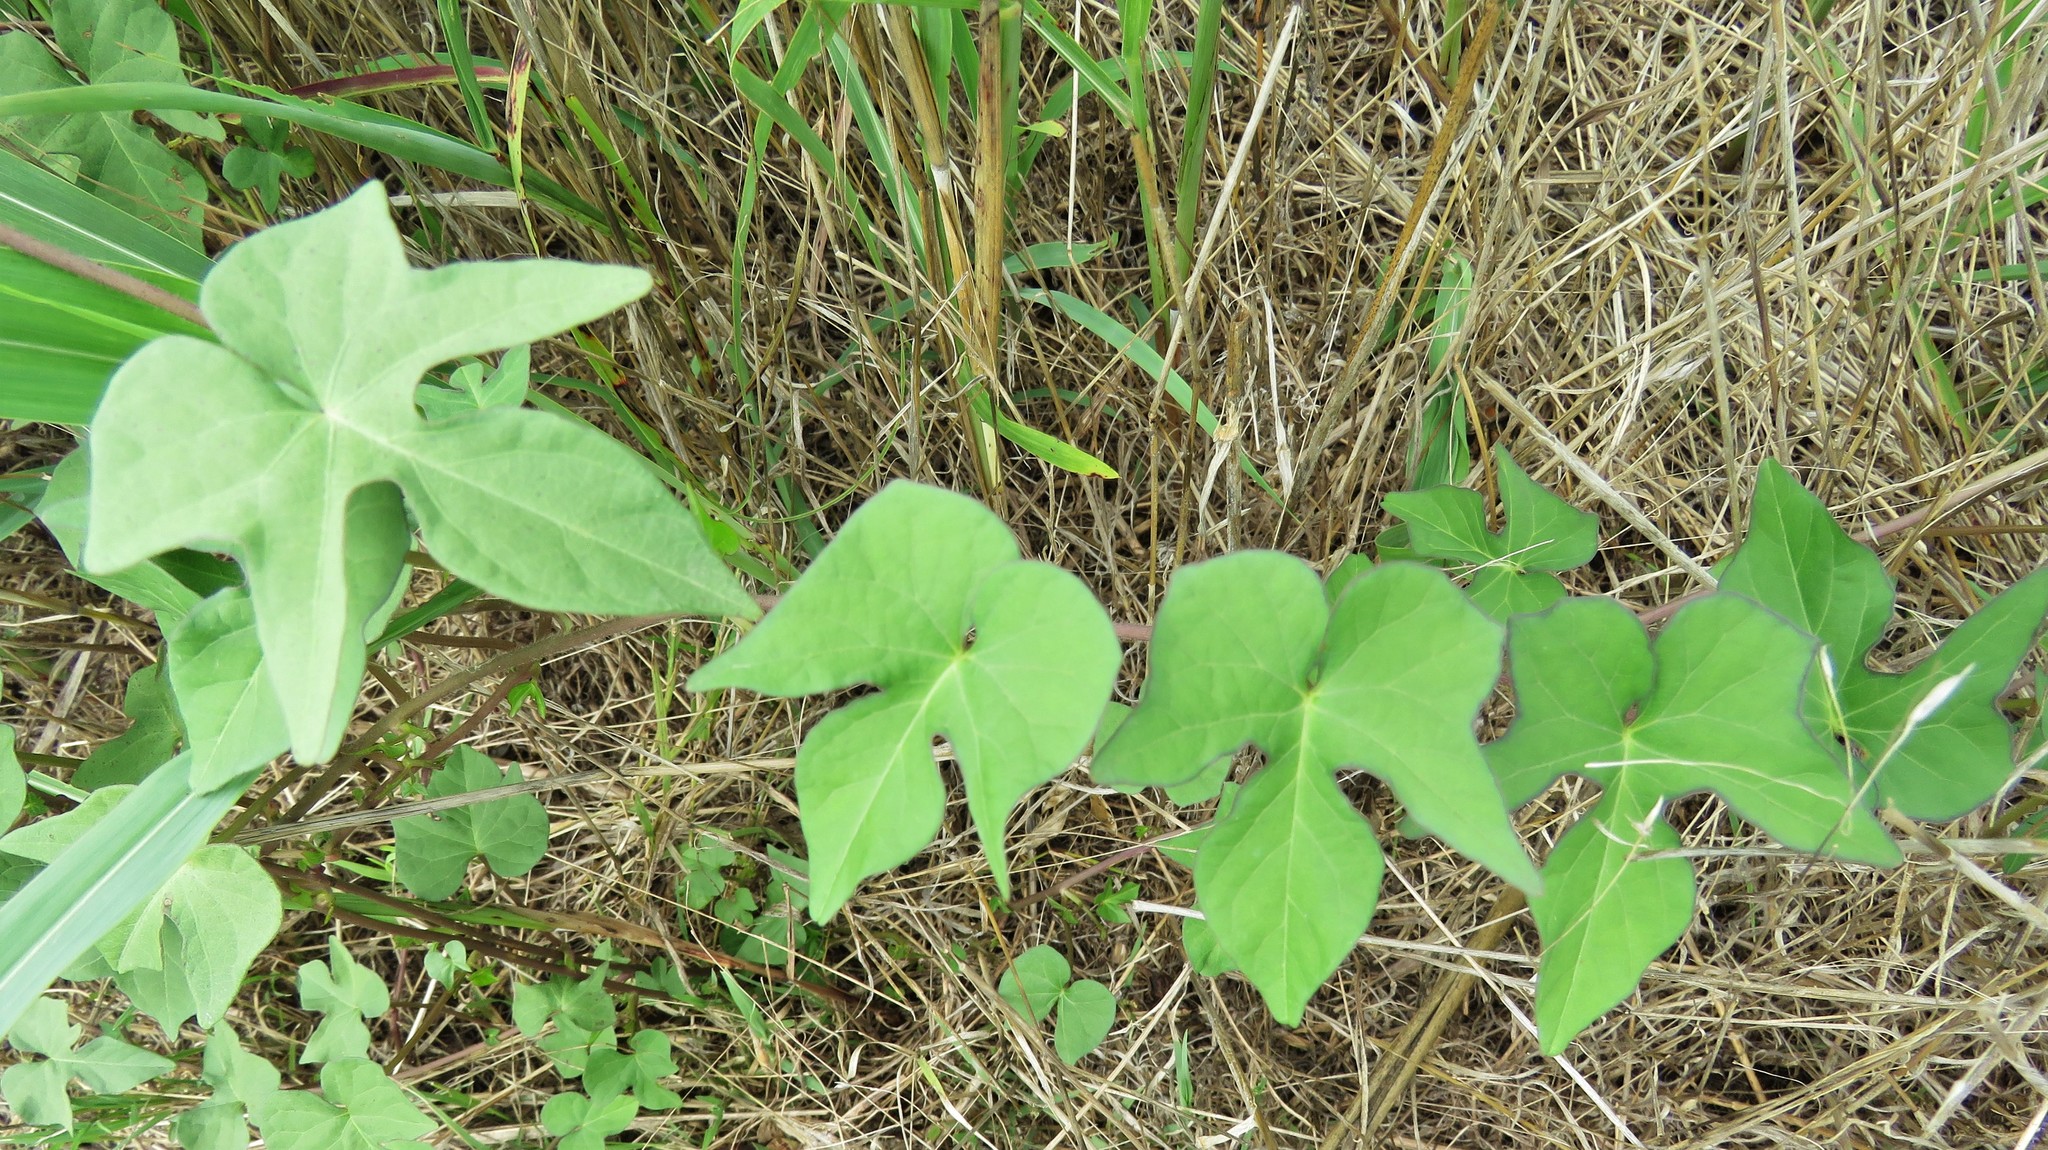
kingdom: Plantae
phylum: Tracheophyta
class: Magnoliopsida
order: Solanales
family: Convolvulaceae
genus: Ipomoea
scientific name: Ipomoea cordatotriloba
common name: Cotton morning glory
